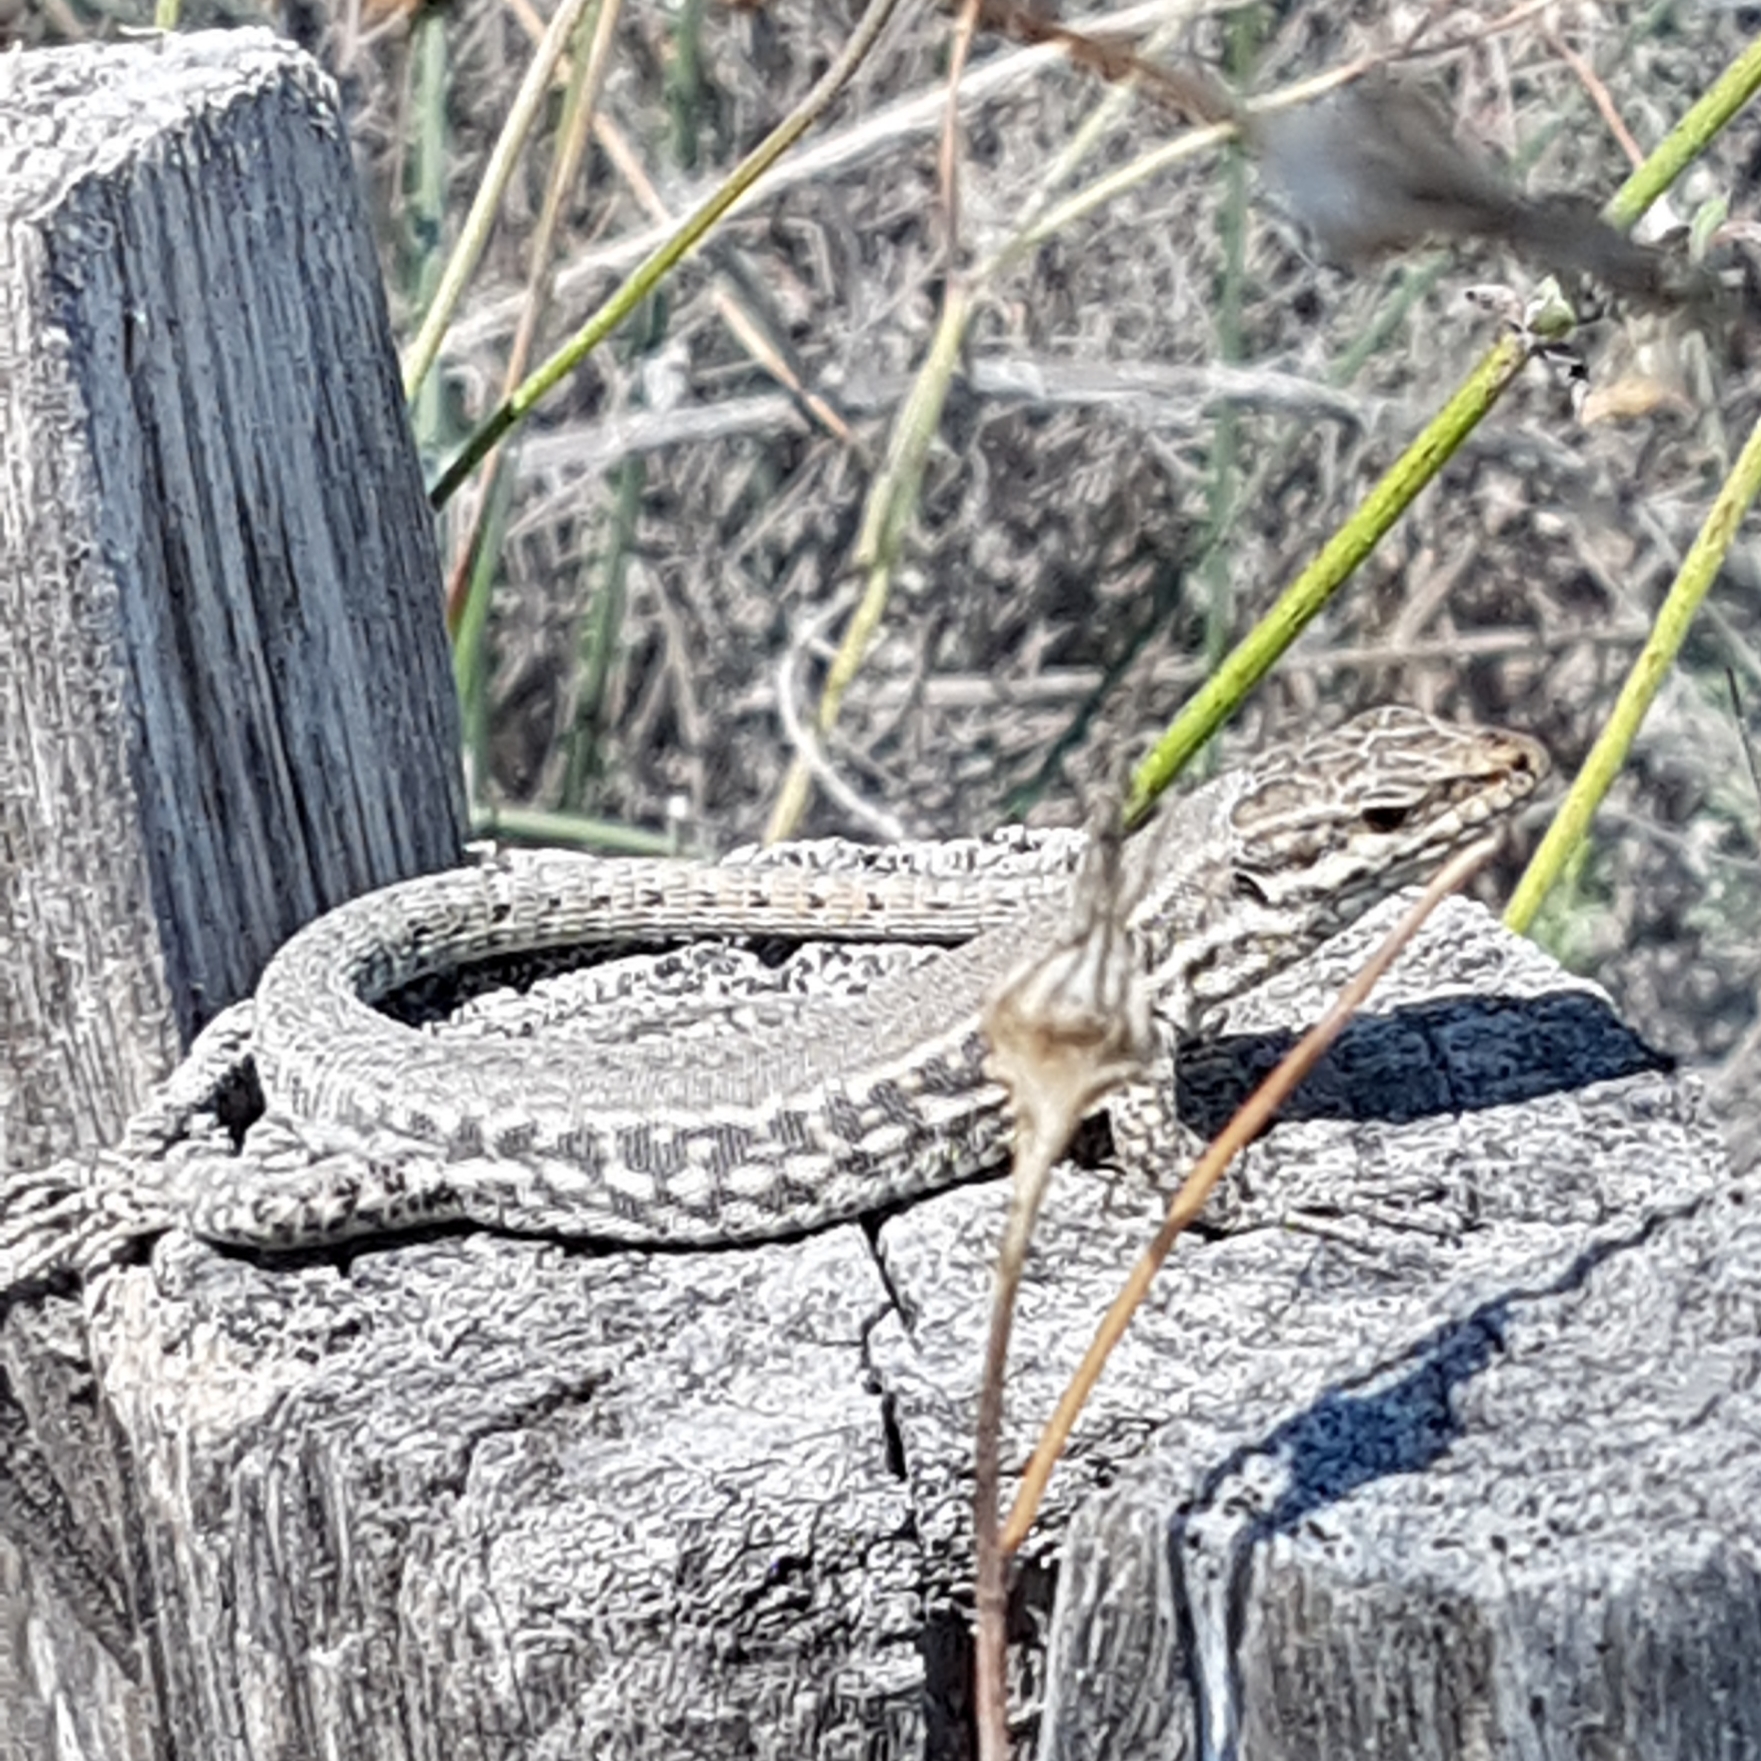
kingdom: Animalia
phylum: Chordata
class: Squamata
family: Lacertidae
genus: Podarcis
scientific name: Podarcis muralis
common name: Common wall lizard
